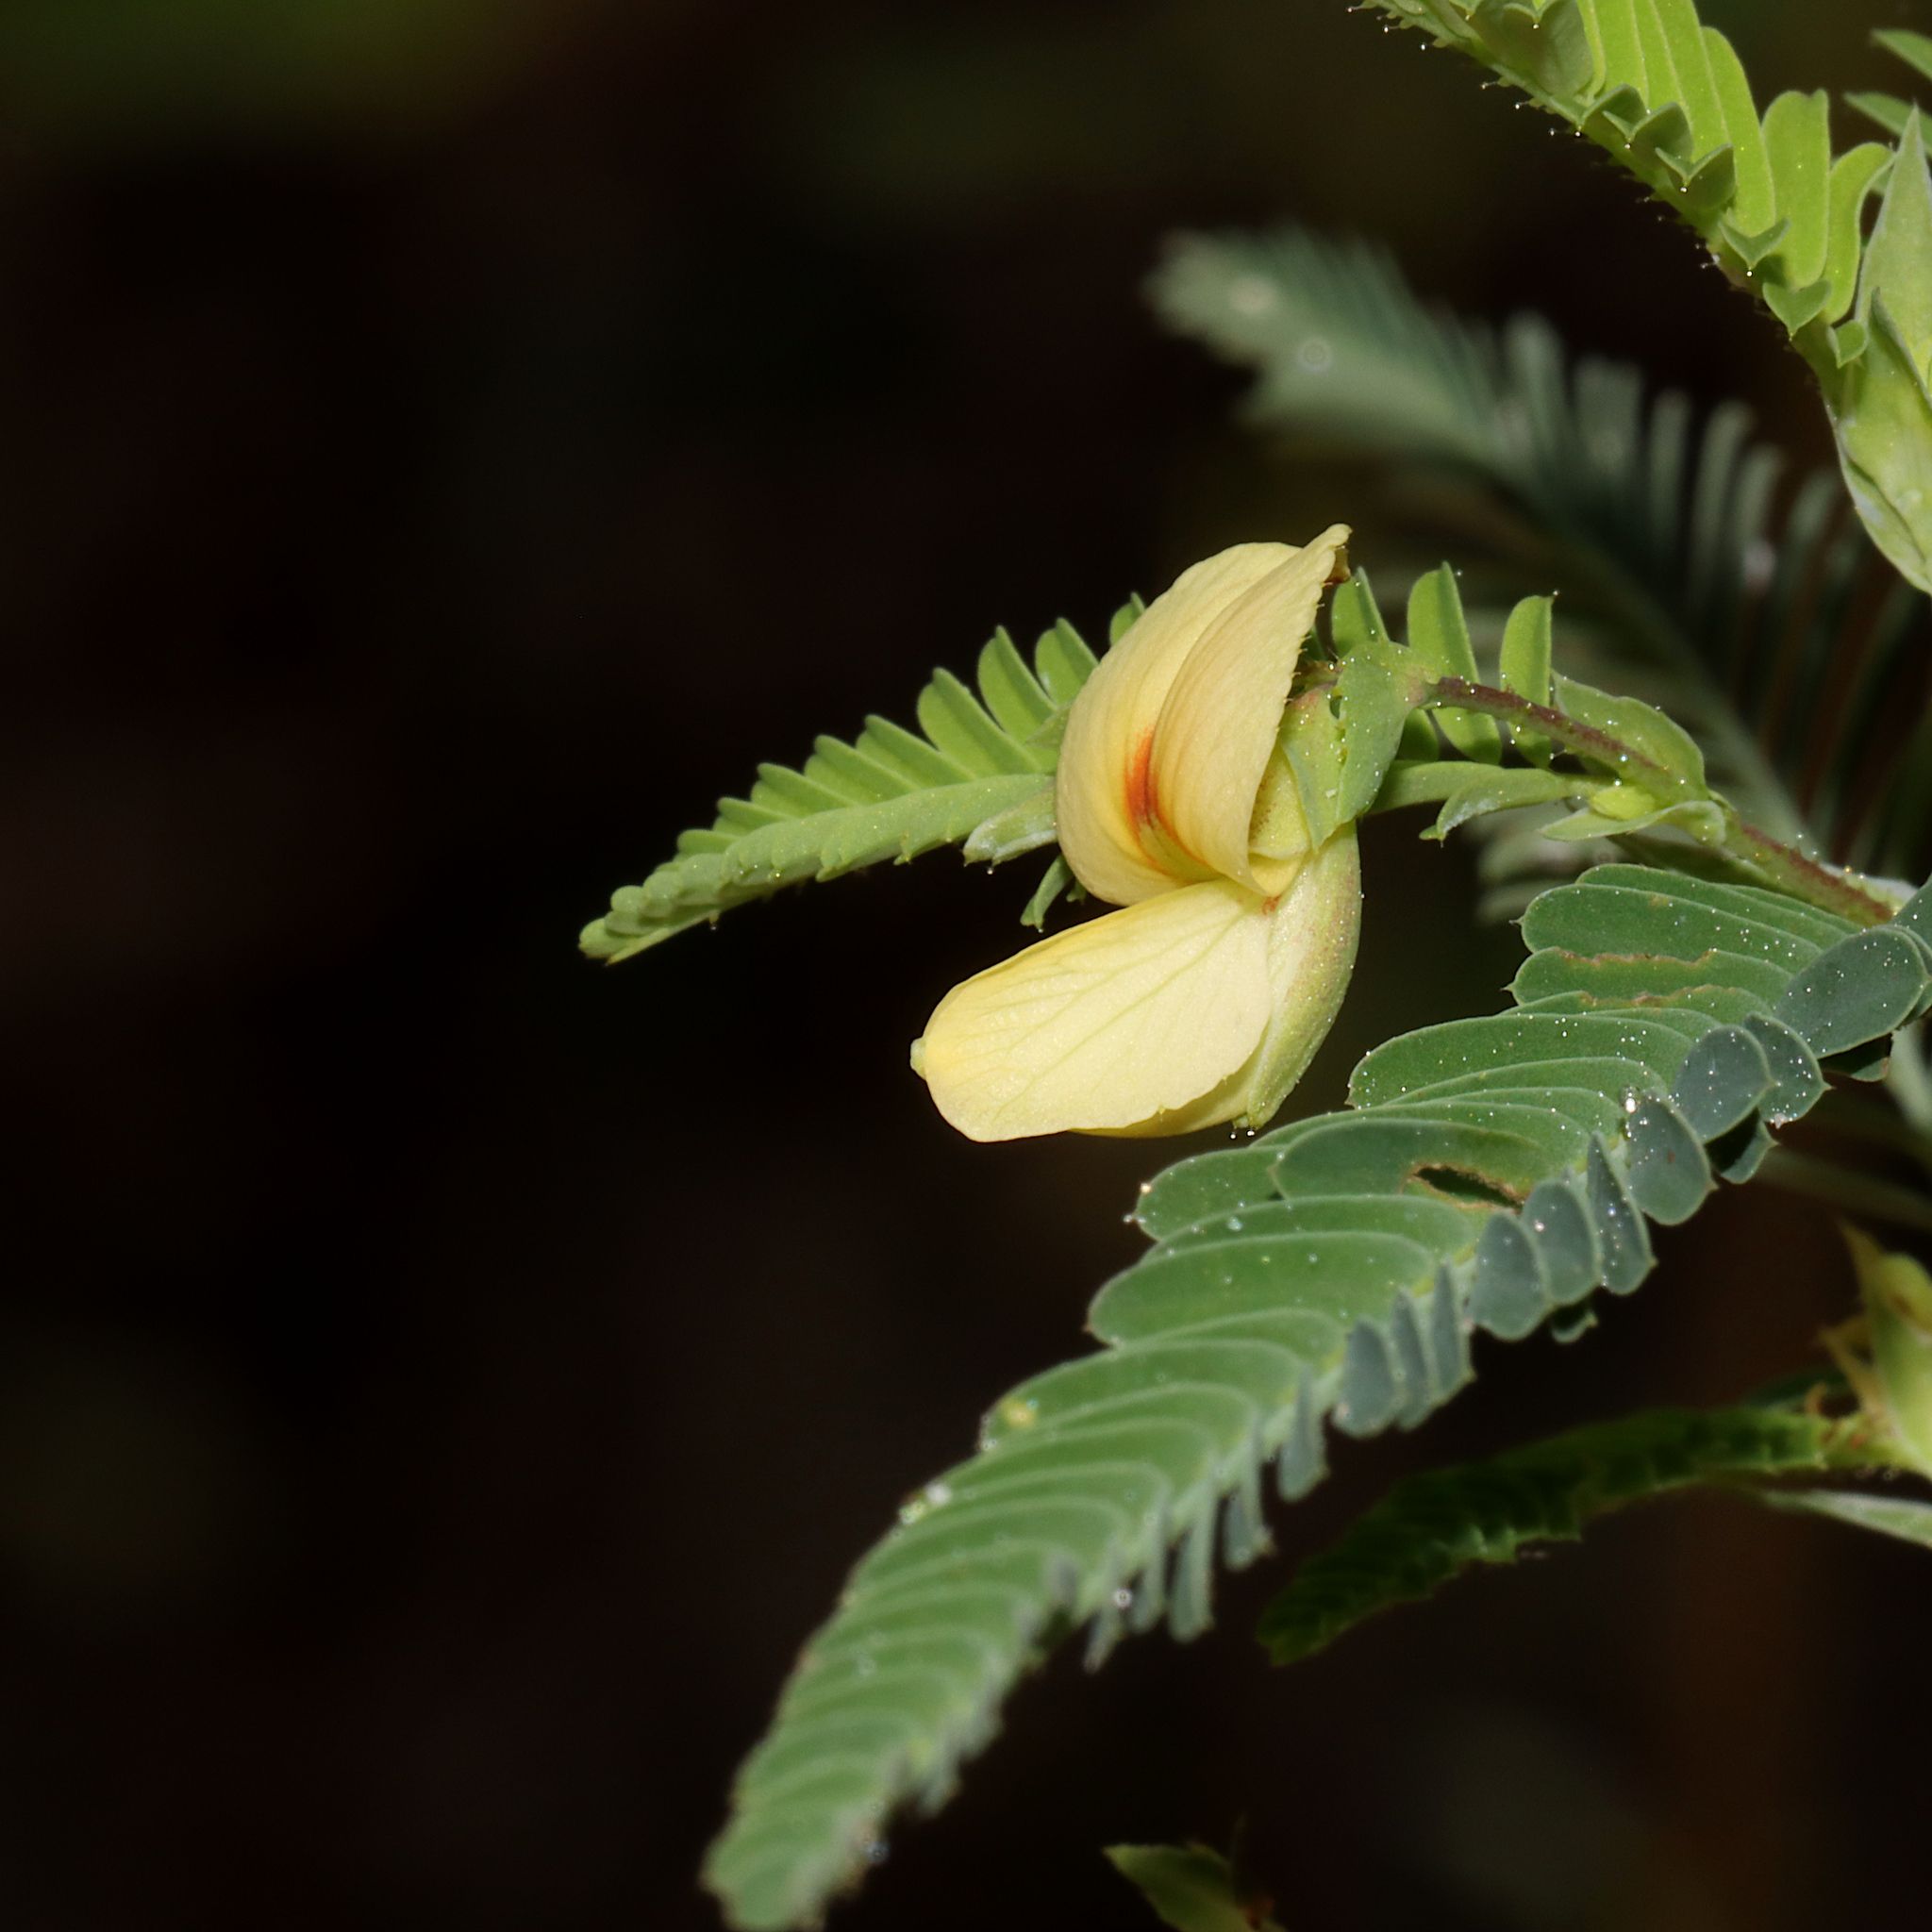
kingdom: Plantae
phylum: Tracheophyta
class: Magnoliopsida
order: Fabales
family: Fabaceae
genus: Aeschynomene
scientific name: Aeschynomene indica
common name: Indian jointvetch
